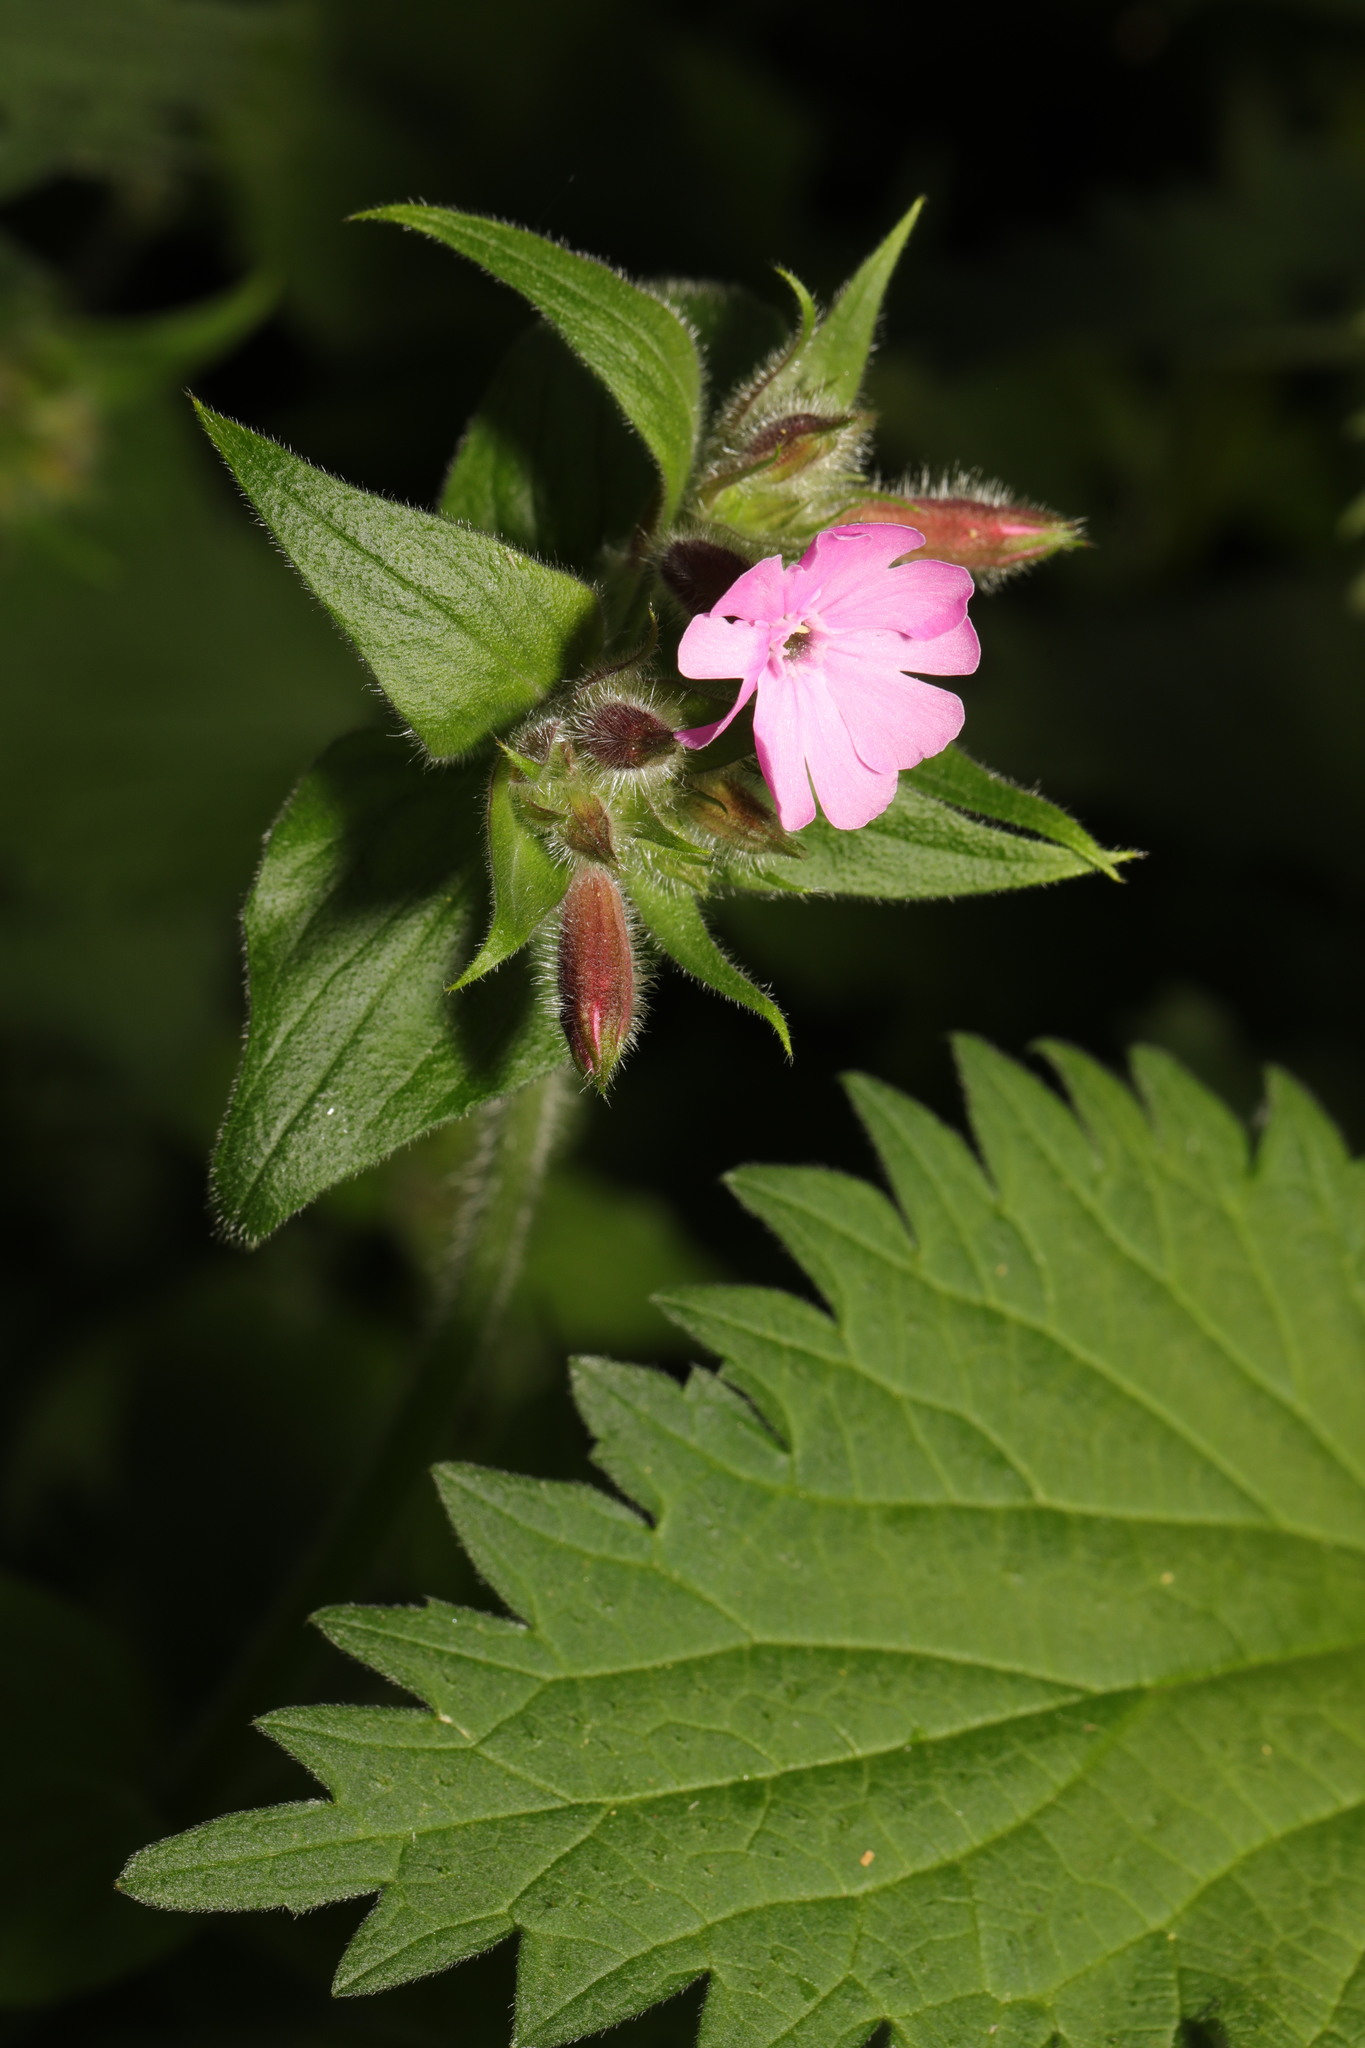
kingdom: Plantae
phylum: Tracheophyta
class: Magnoliopsida
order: Caryophyllales
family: Caryophyllaceae
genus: Silene
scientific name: Silene dioica
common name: Red campion
